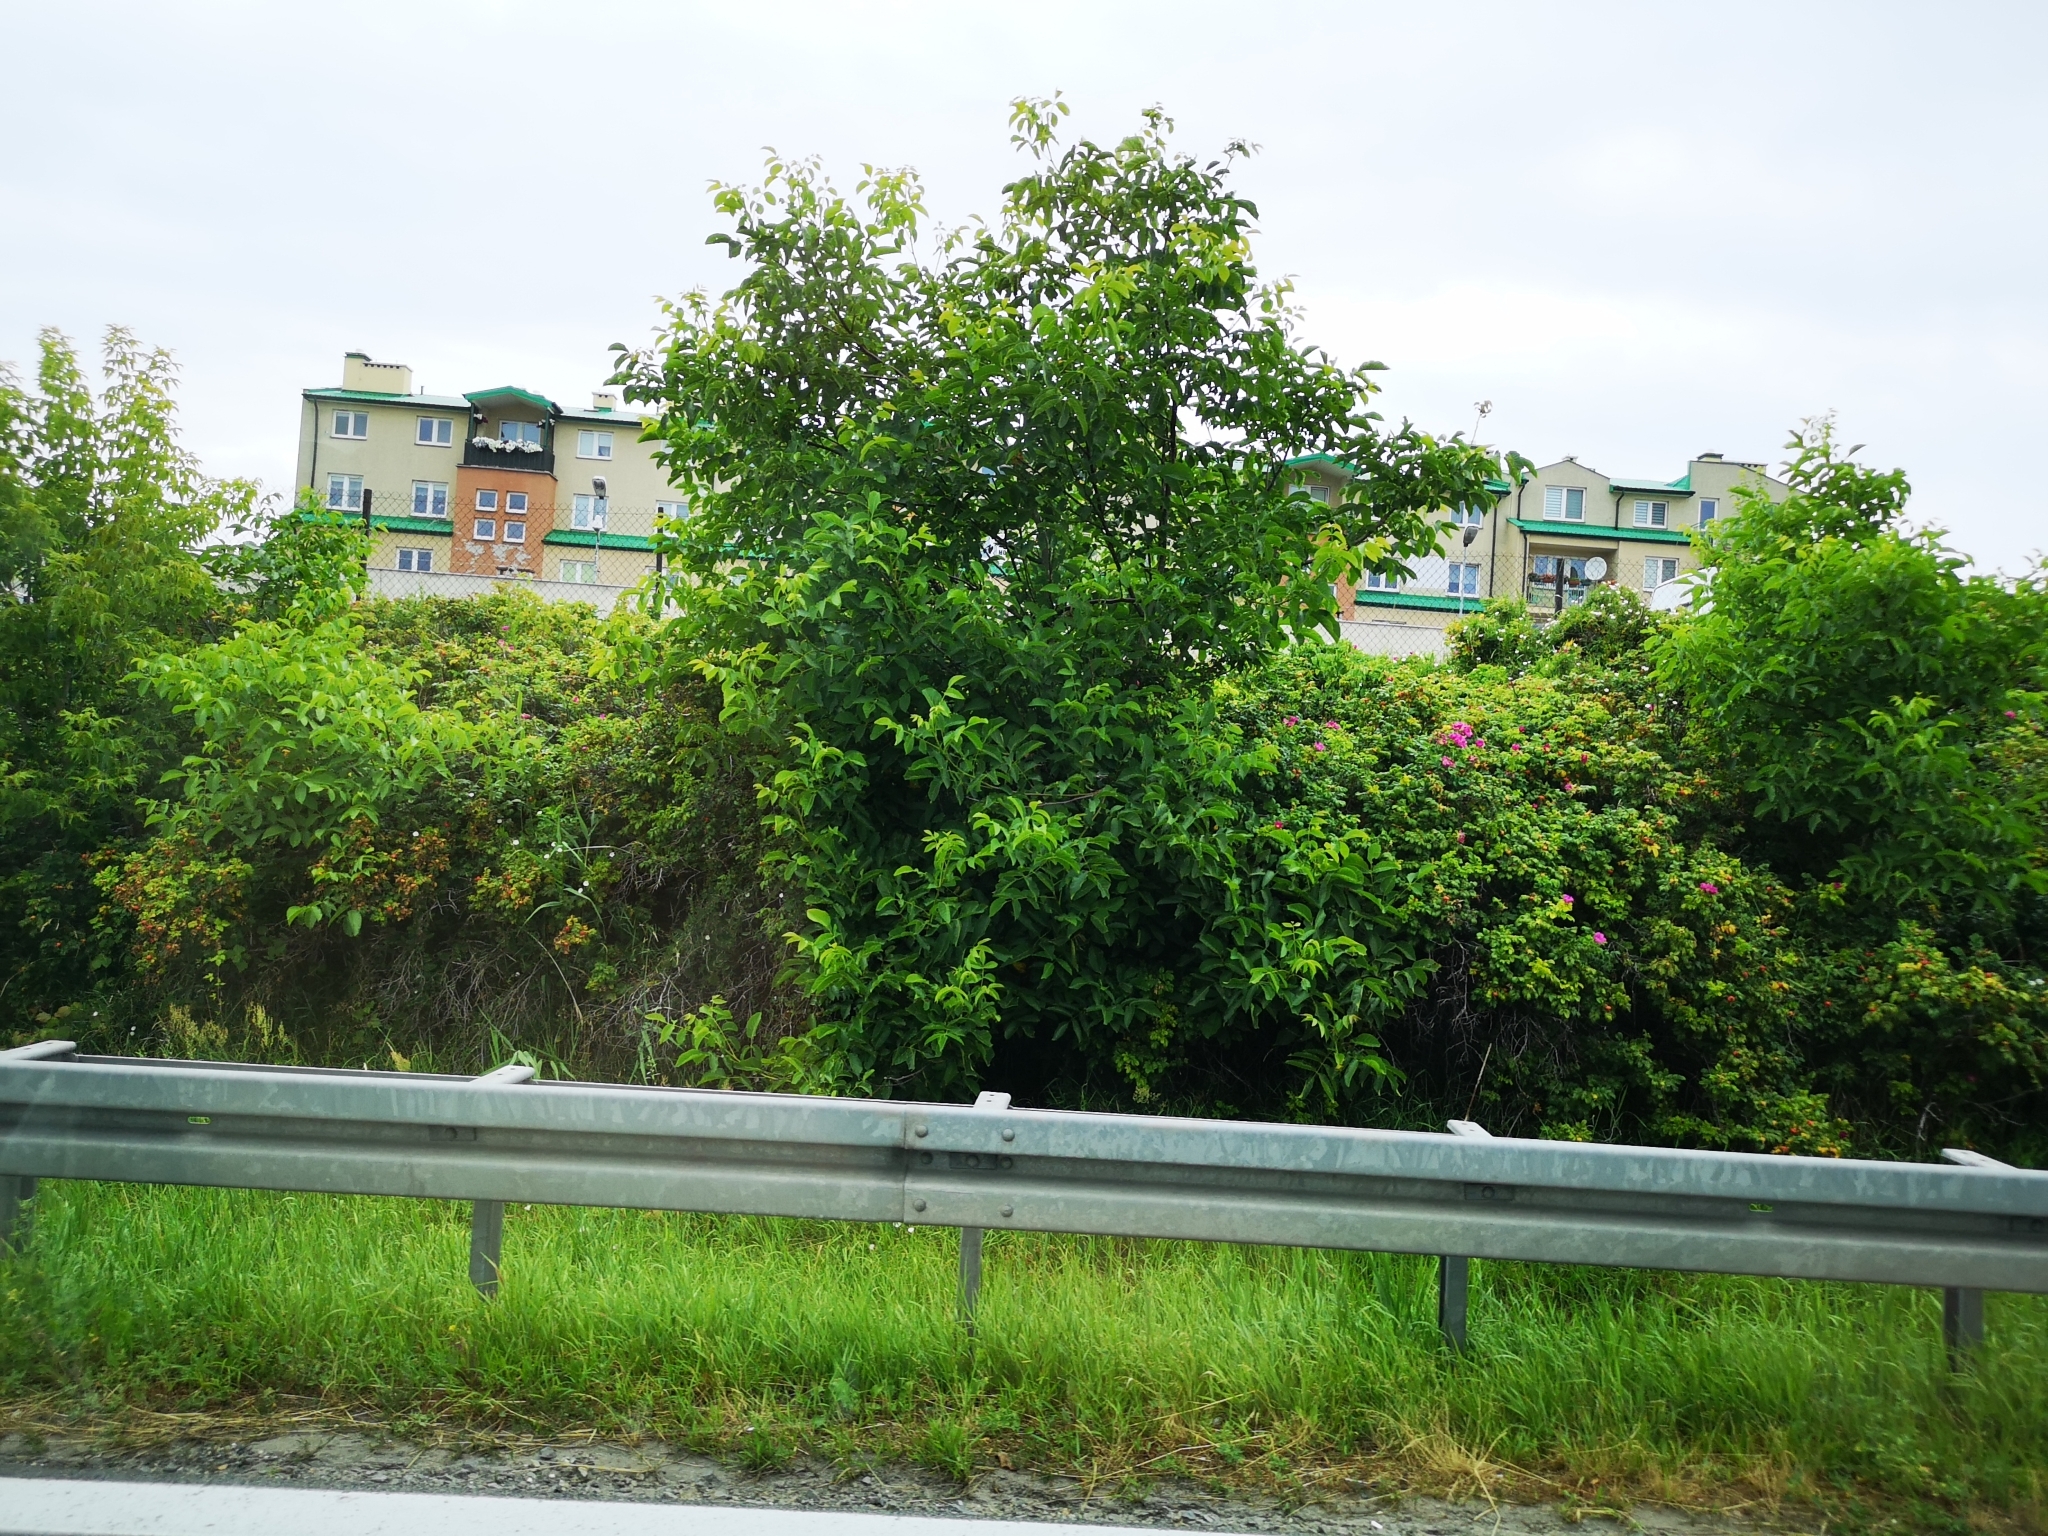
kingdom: Plantae
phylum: Tracheophyta
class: Magnoliopsida
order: Sapindales
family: Sapindaceae
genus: Acer
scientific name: Acer negundo
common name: Ashleaf maple
